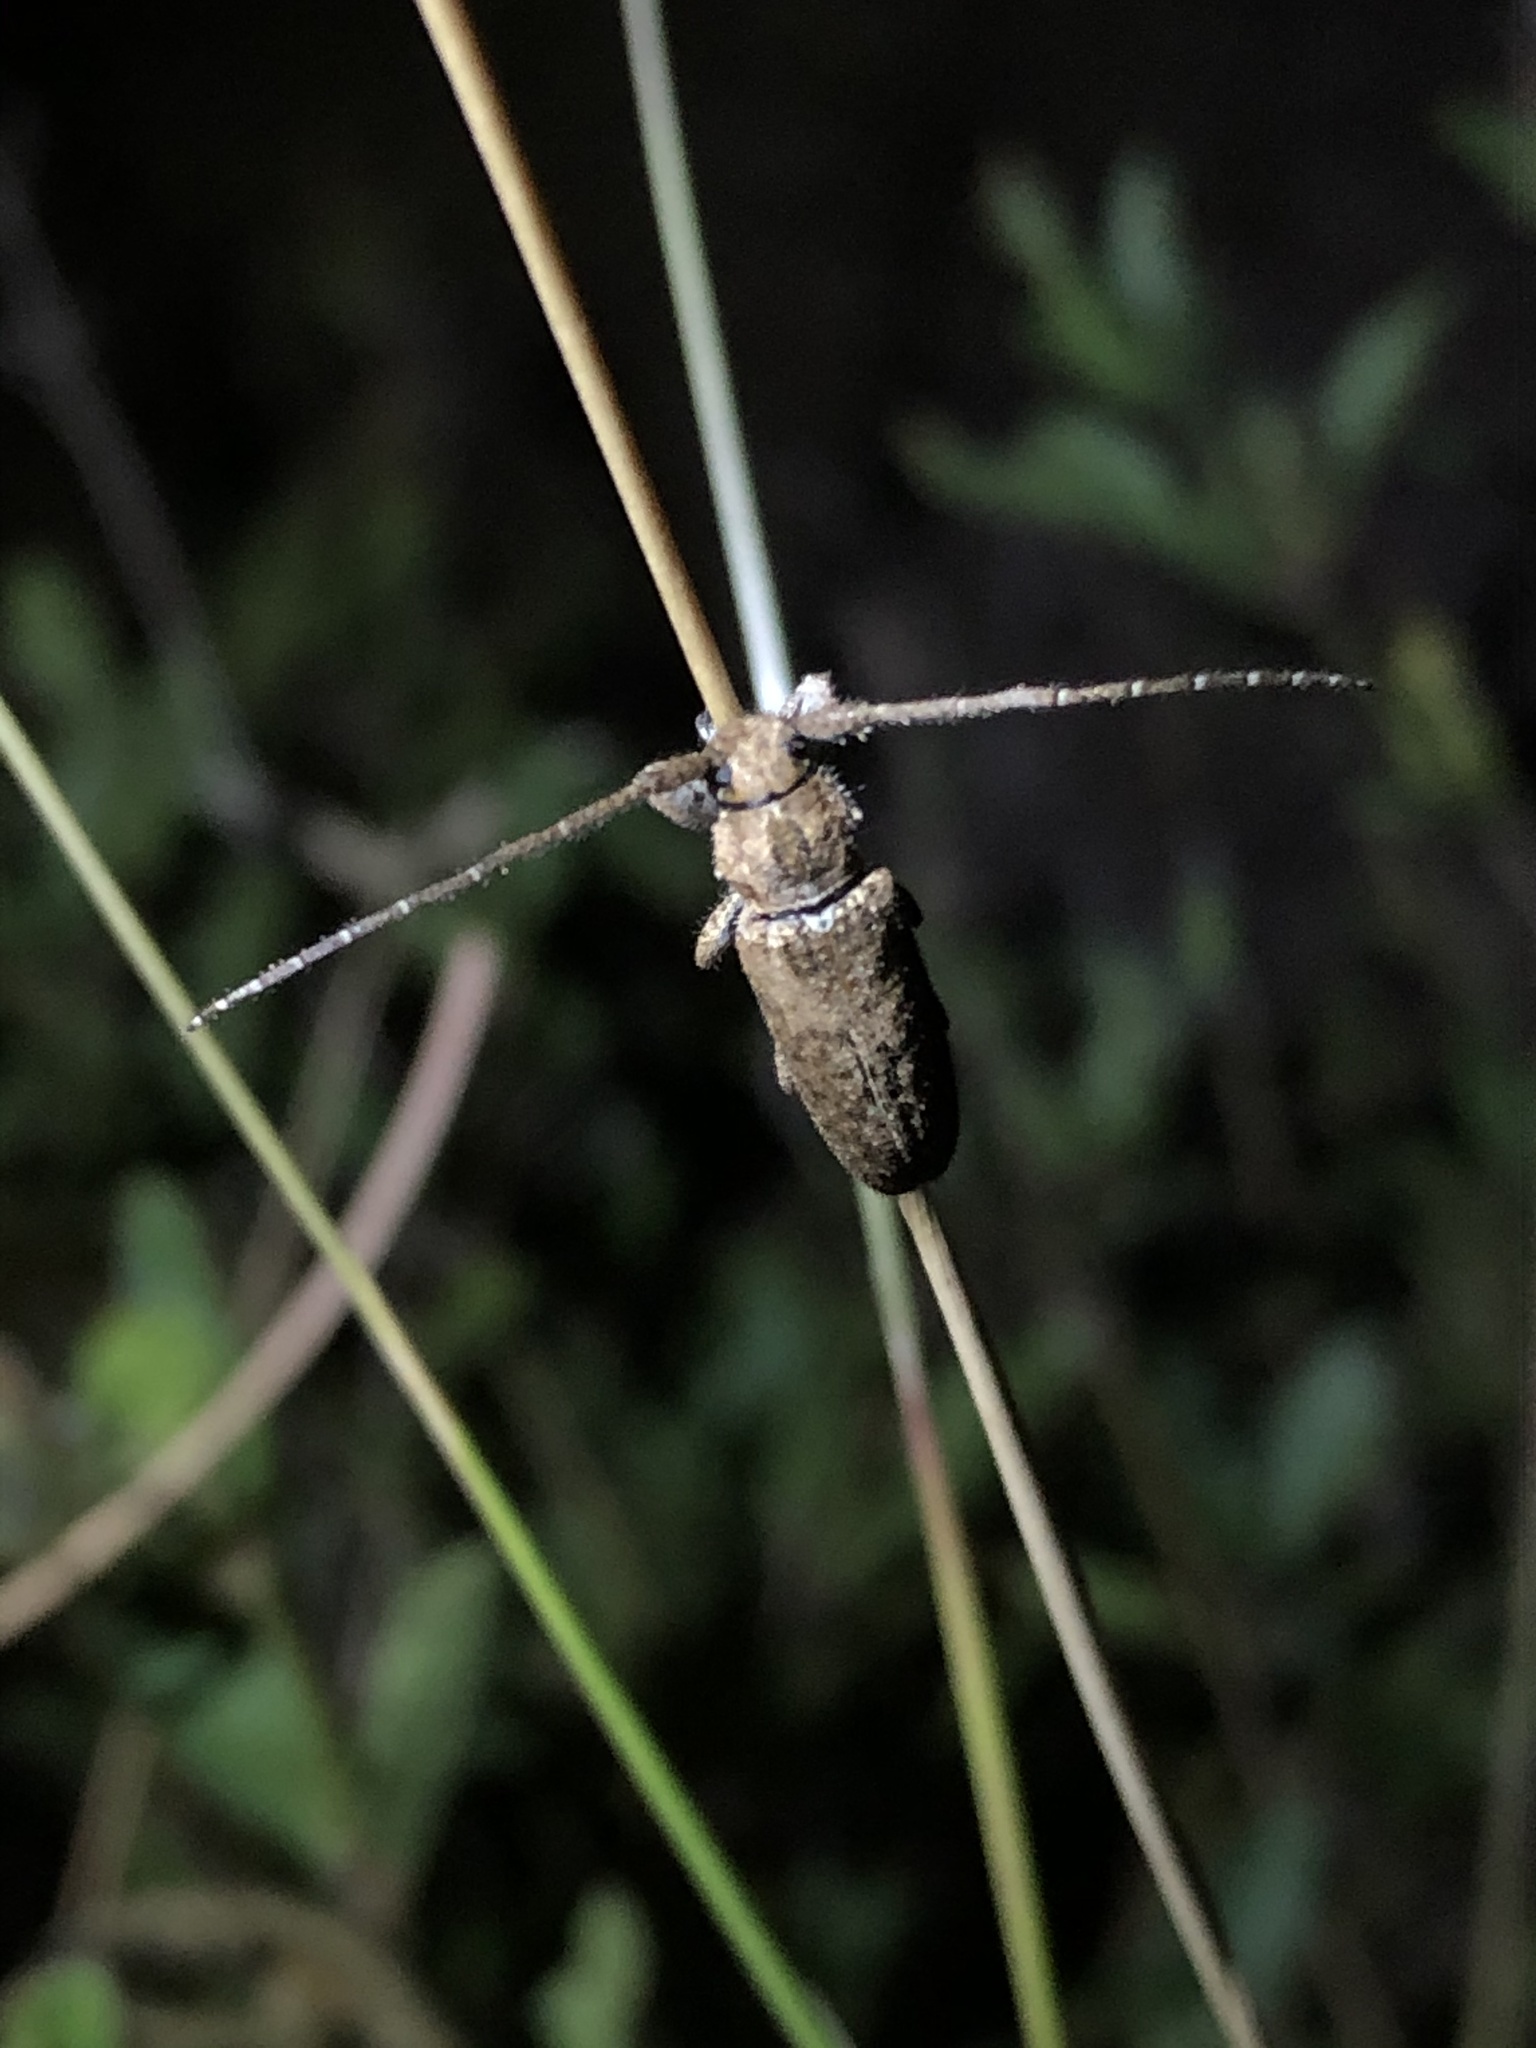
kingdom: Animalia
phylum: Arthropoda
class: Insecta
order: Coleoptera
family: Cerambycidae
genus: Ataxia
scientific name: Ataxia crypta
